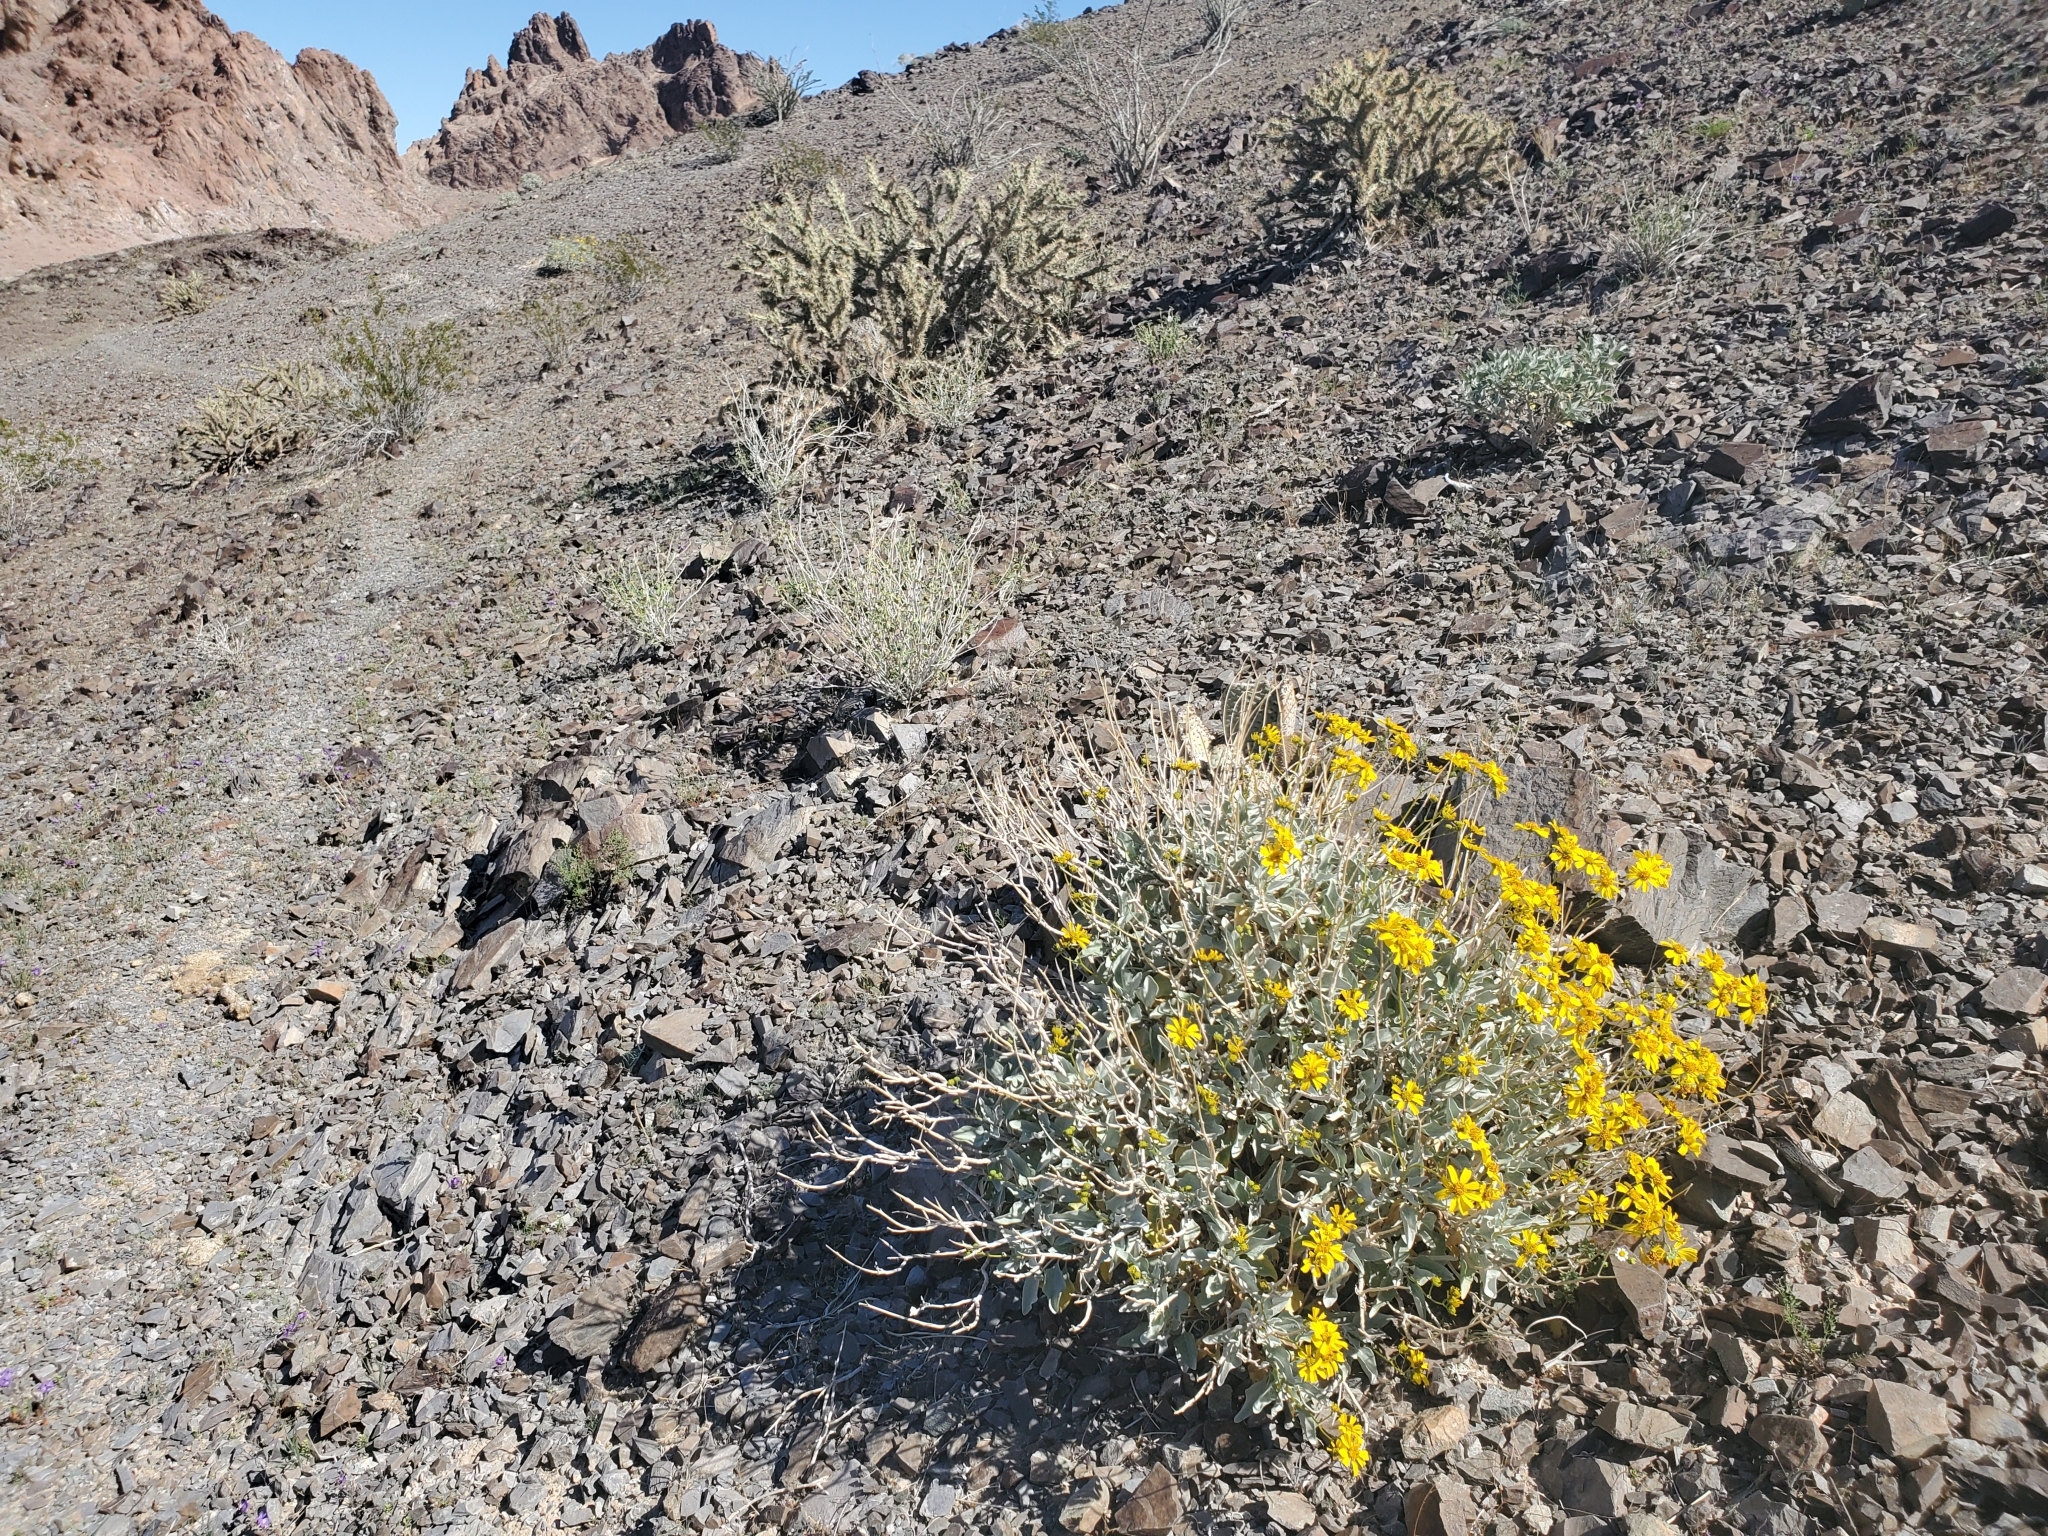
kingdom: Plantae
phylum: Tracheophyta
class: Magnoliopsida
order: Asterales
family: Asteraceae
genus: Encelia
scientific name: Encelia farinosa
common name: Brittlebush
